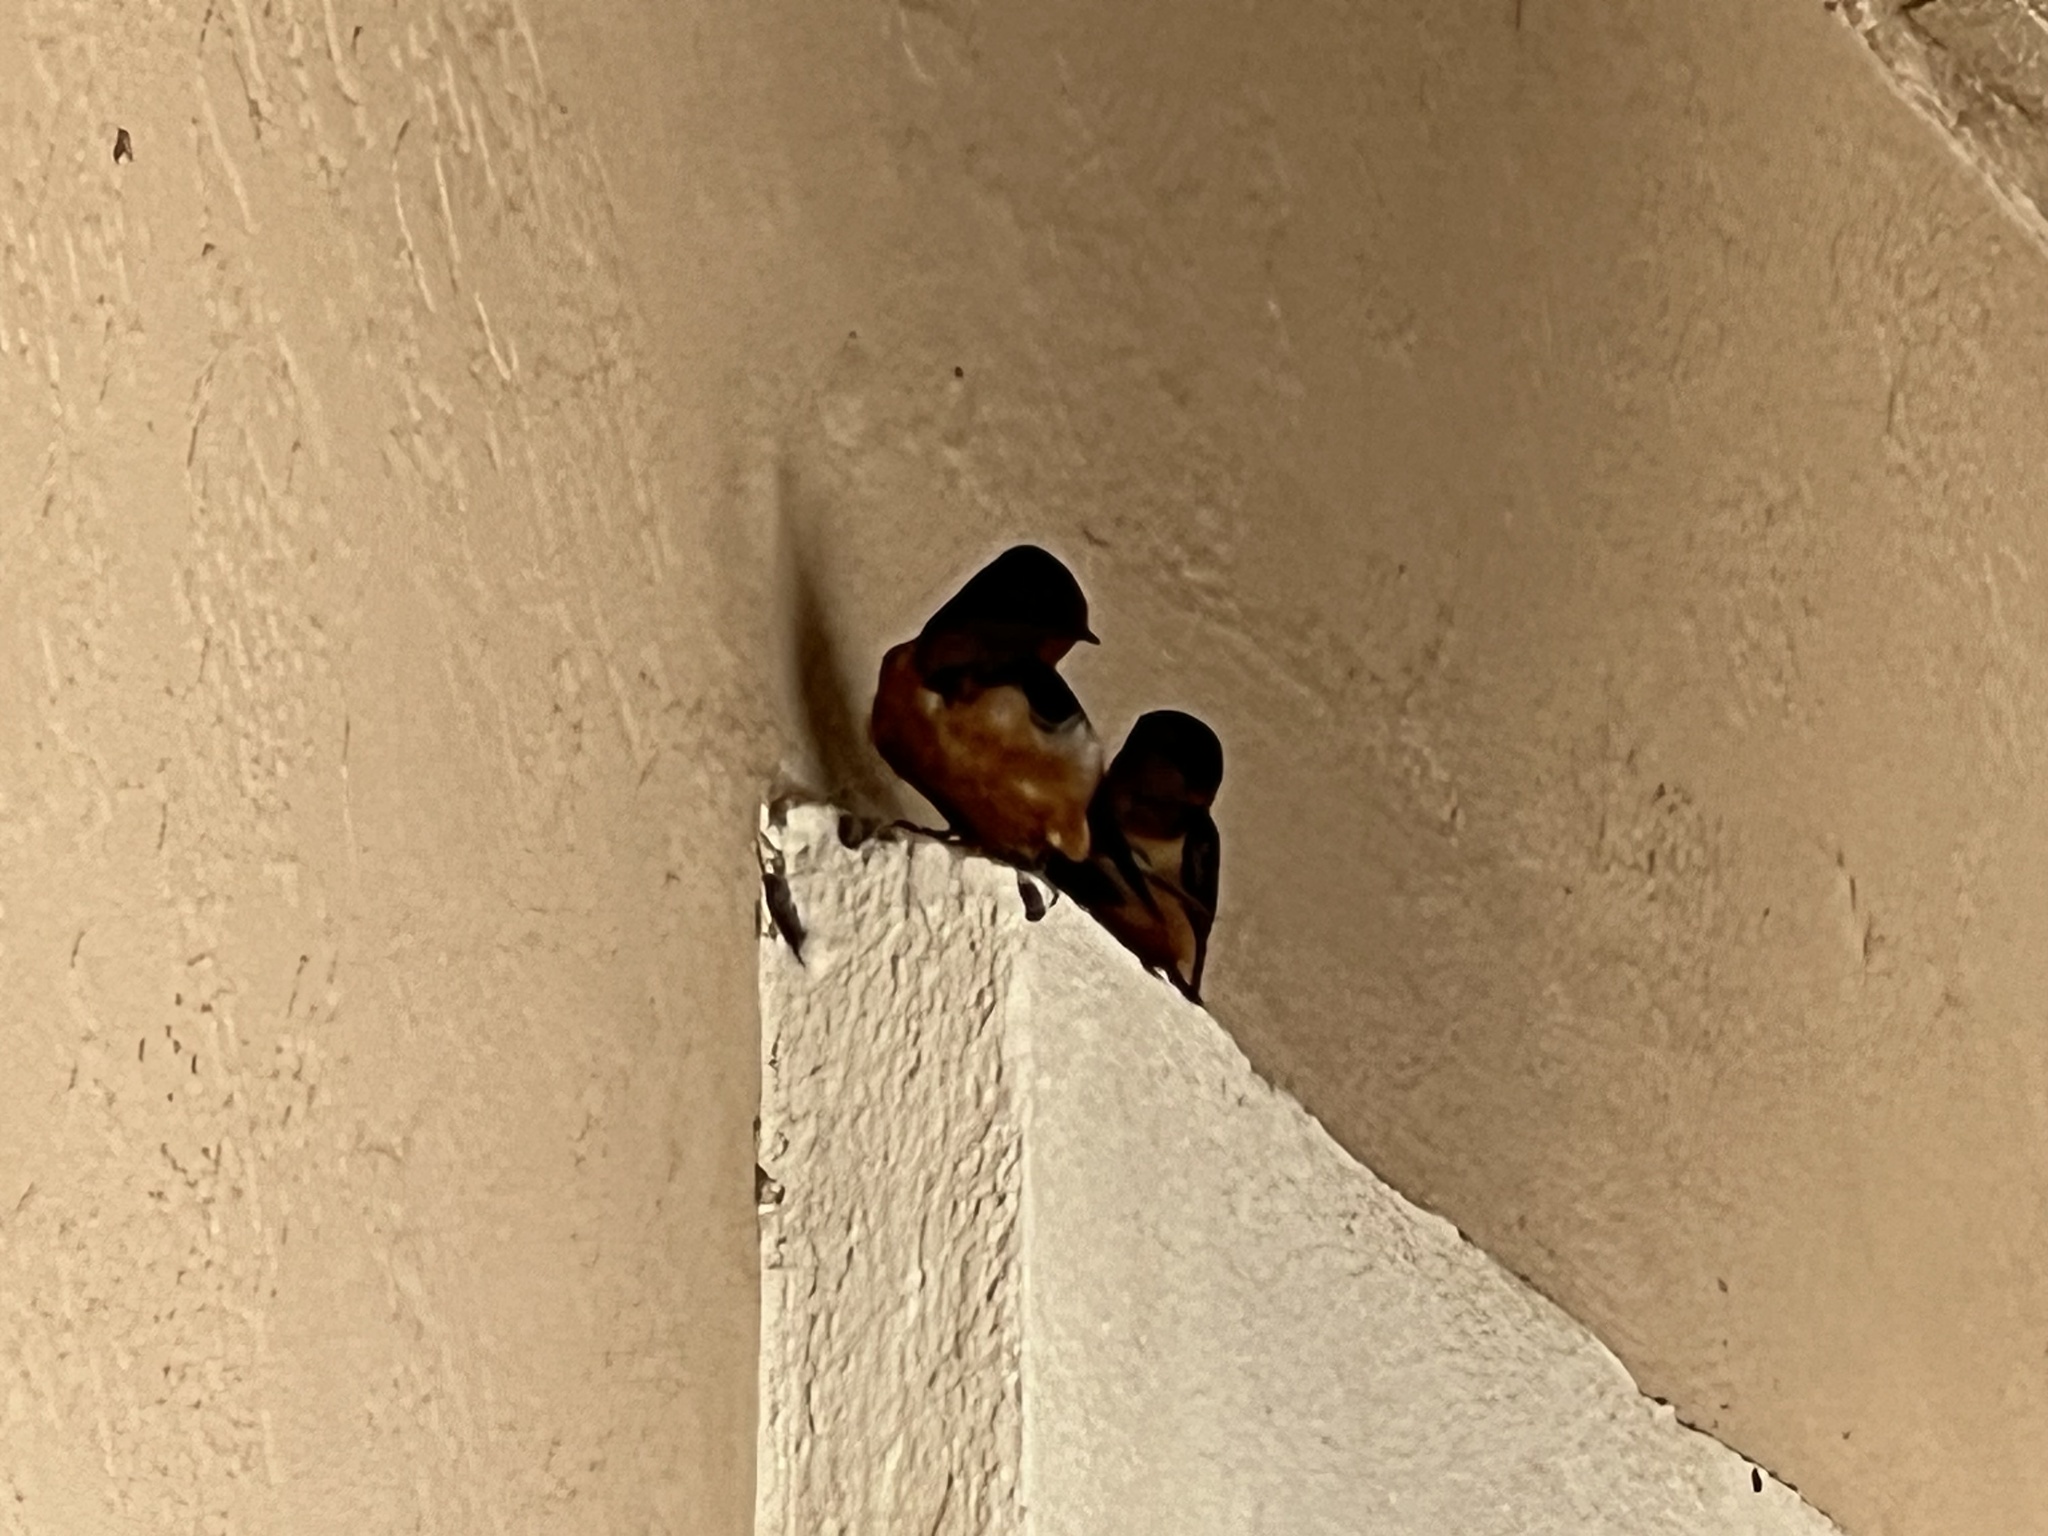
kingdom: Animalia
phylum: Chordata
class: Aves
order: Passeriformes
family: Hirundinidae
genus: Hirundo
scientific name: Hirundo rustica
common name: Barn swallow
